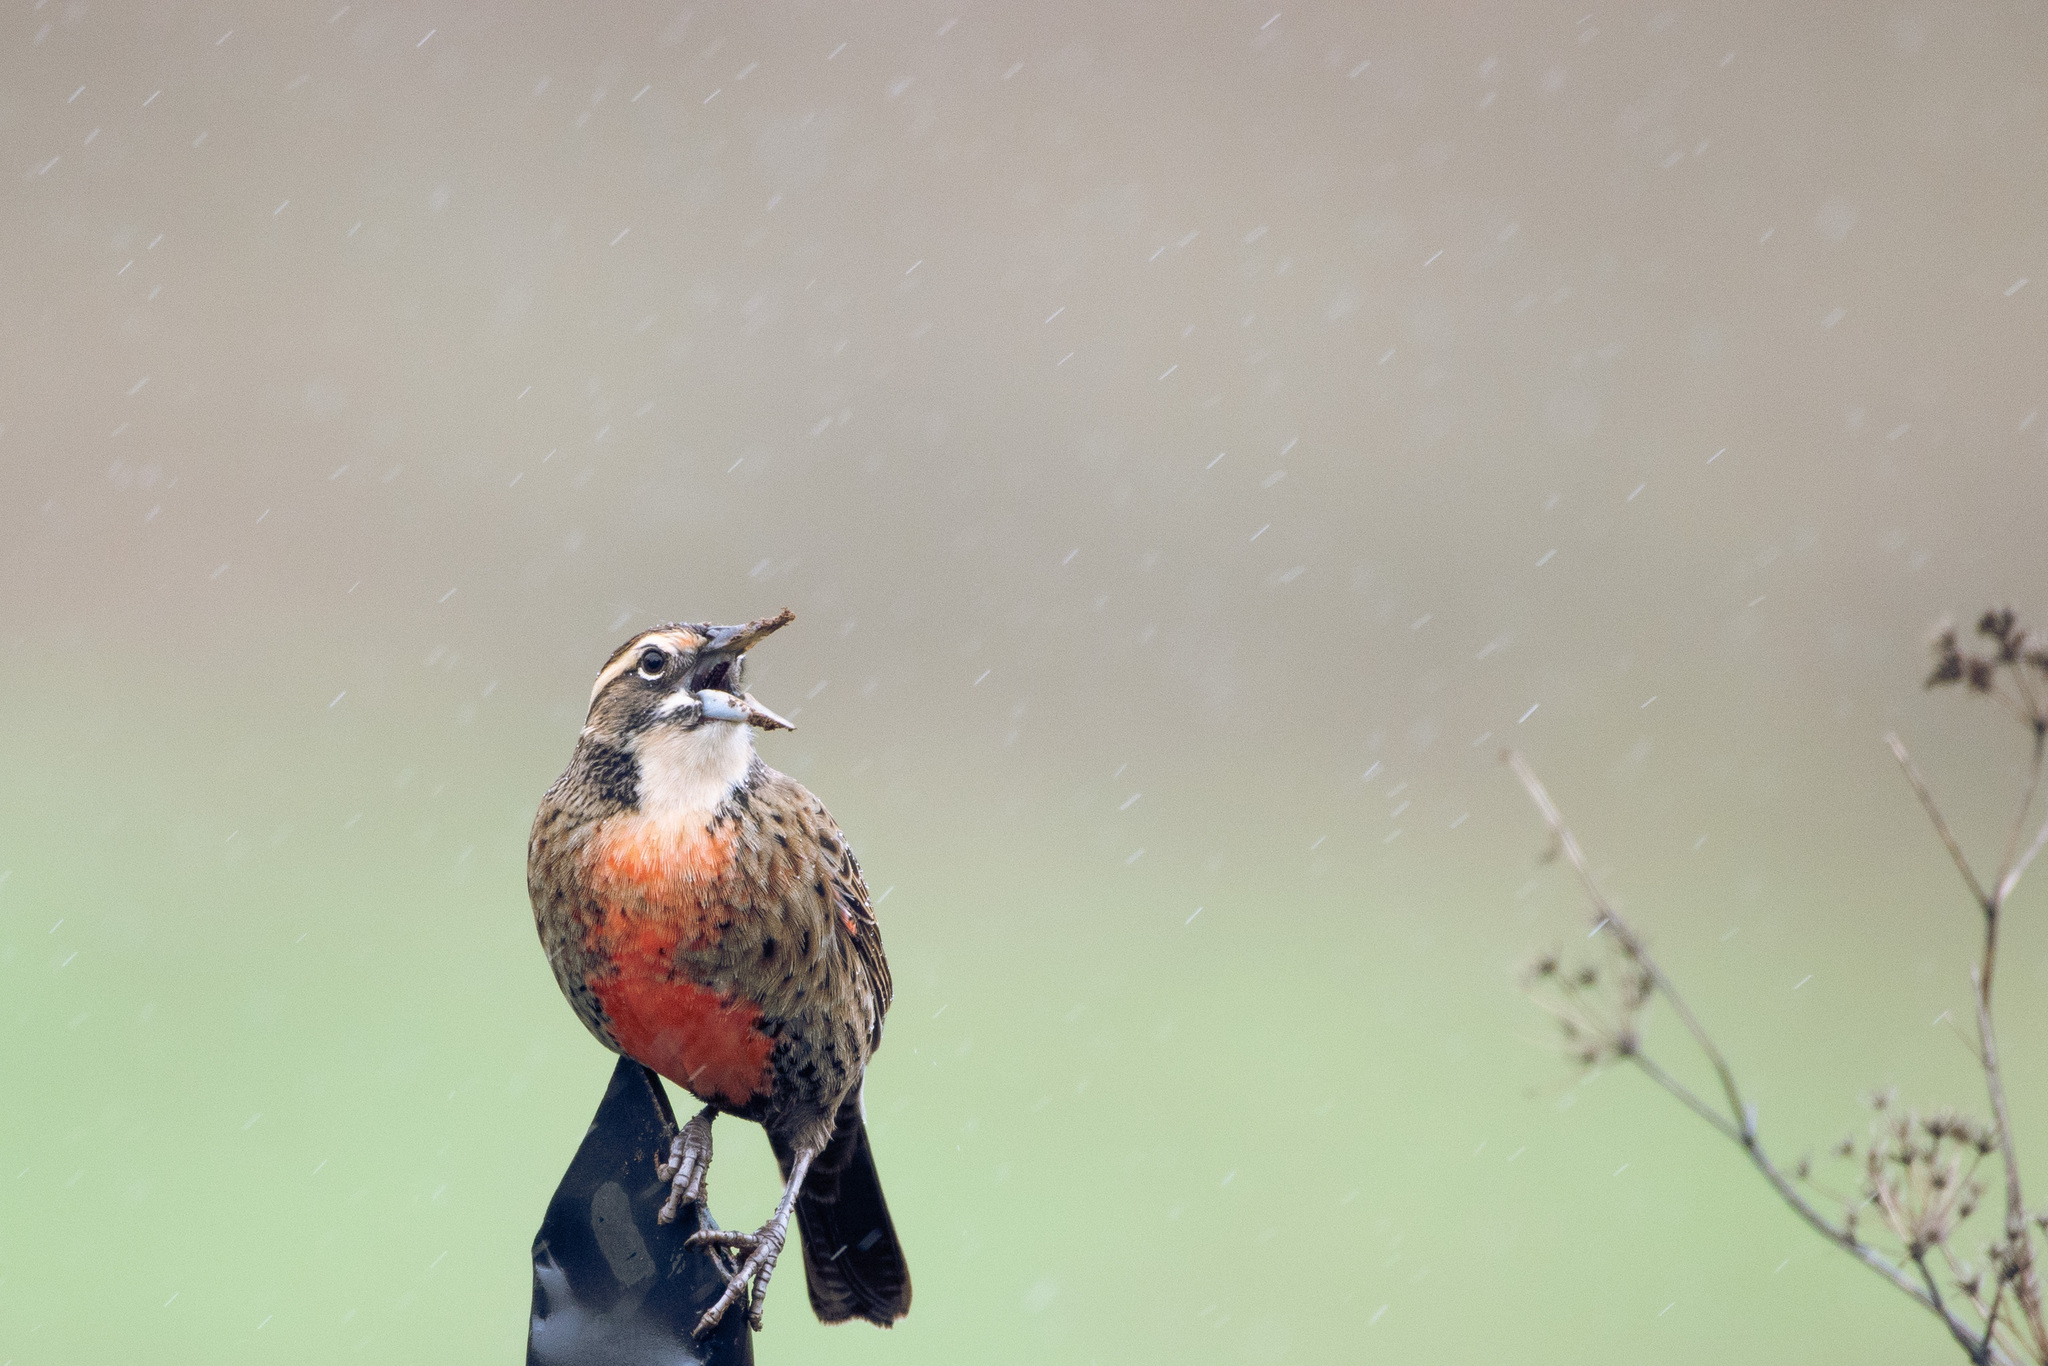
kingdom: Animalia
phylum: Chordata
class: Aves
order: Passeriformes
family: Icteridae
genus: Sturnella
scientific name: Sturnella loyca
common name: Long-tailed meadowlark
